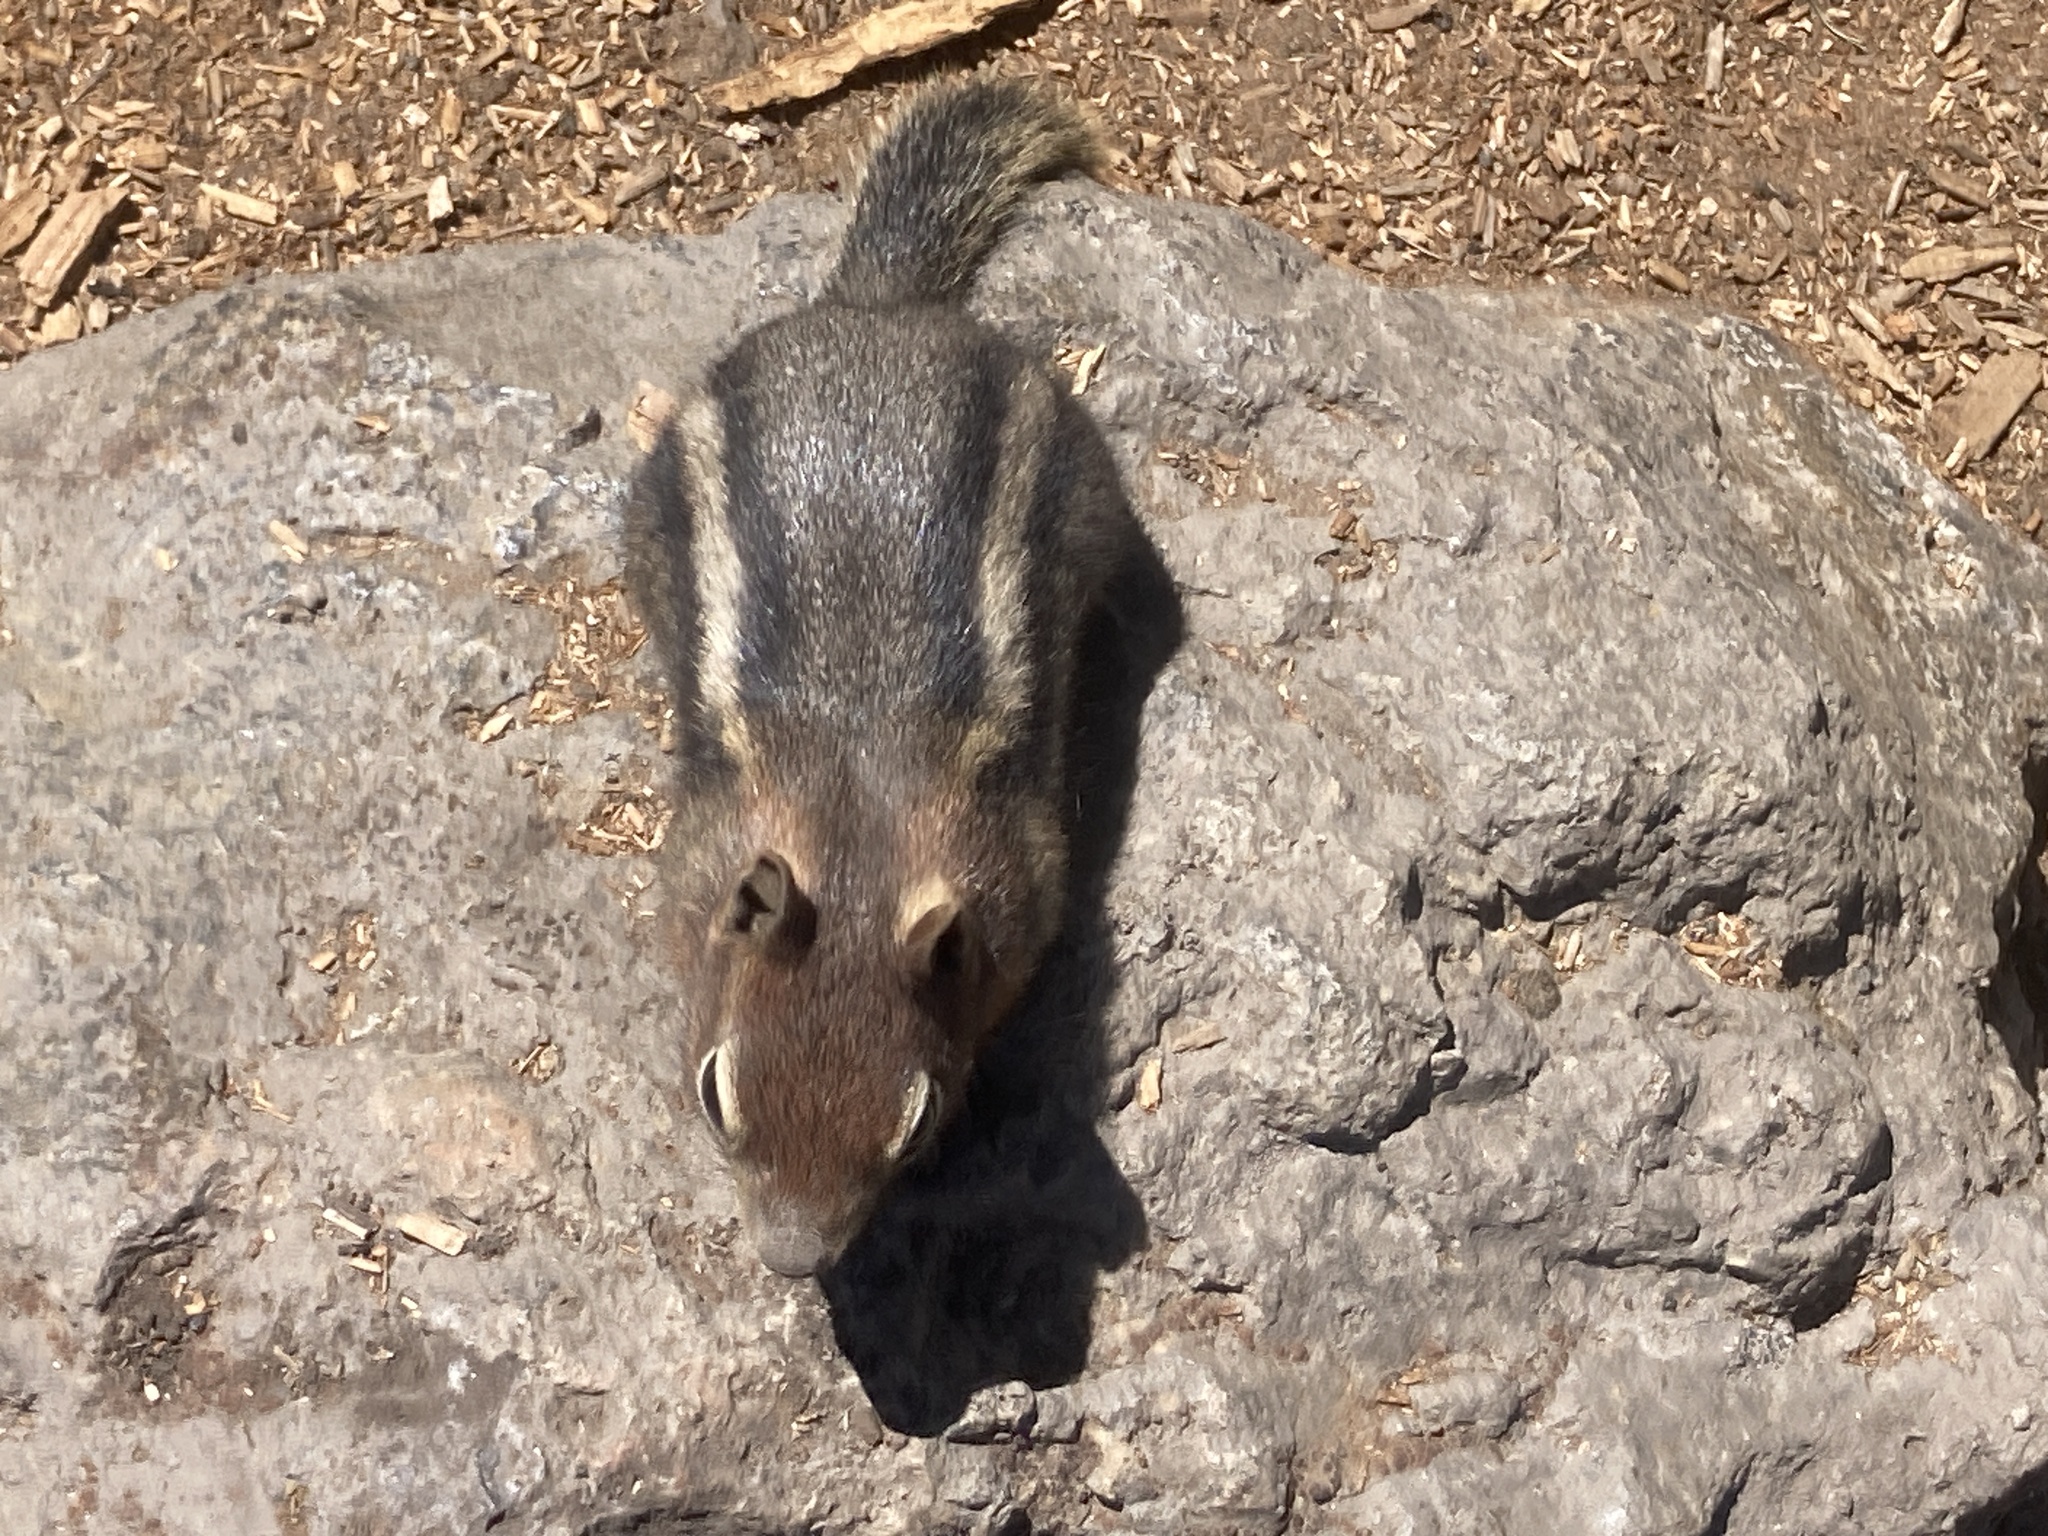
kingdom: Animalia
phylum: Chordata
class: Mammalia
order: Rodentia
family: Sciuridae
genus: Callospermophilus
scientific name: Callospermophilus lateralis
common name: Golden-mantled ground squirrel
